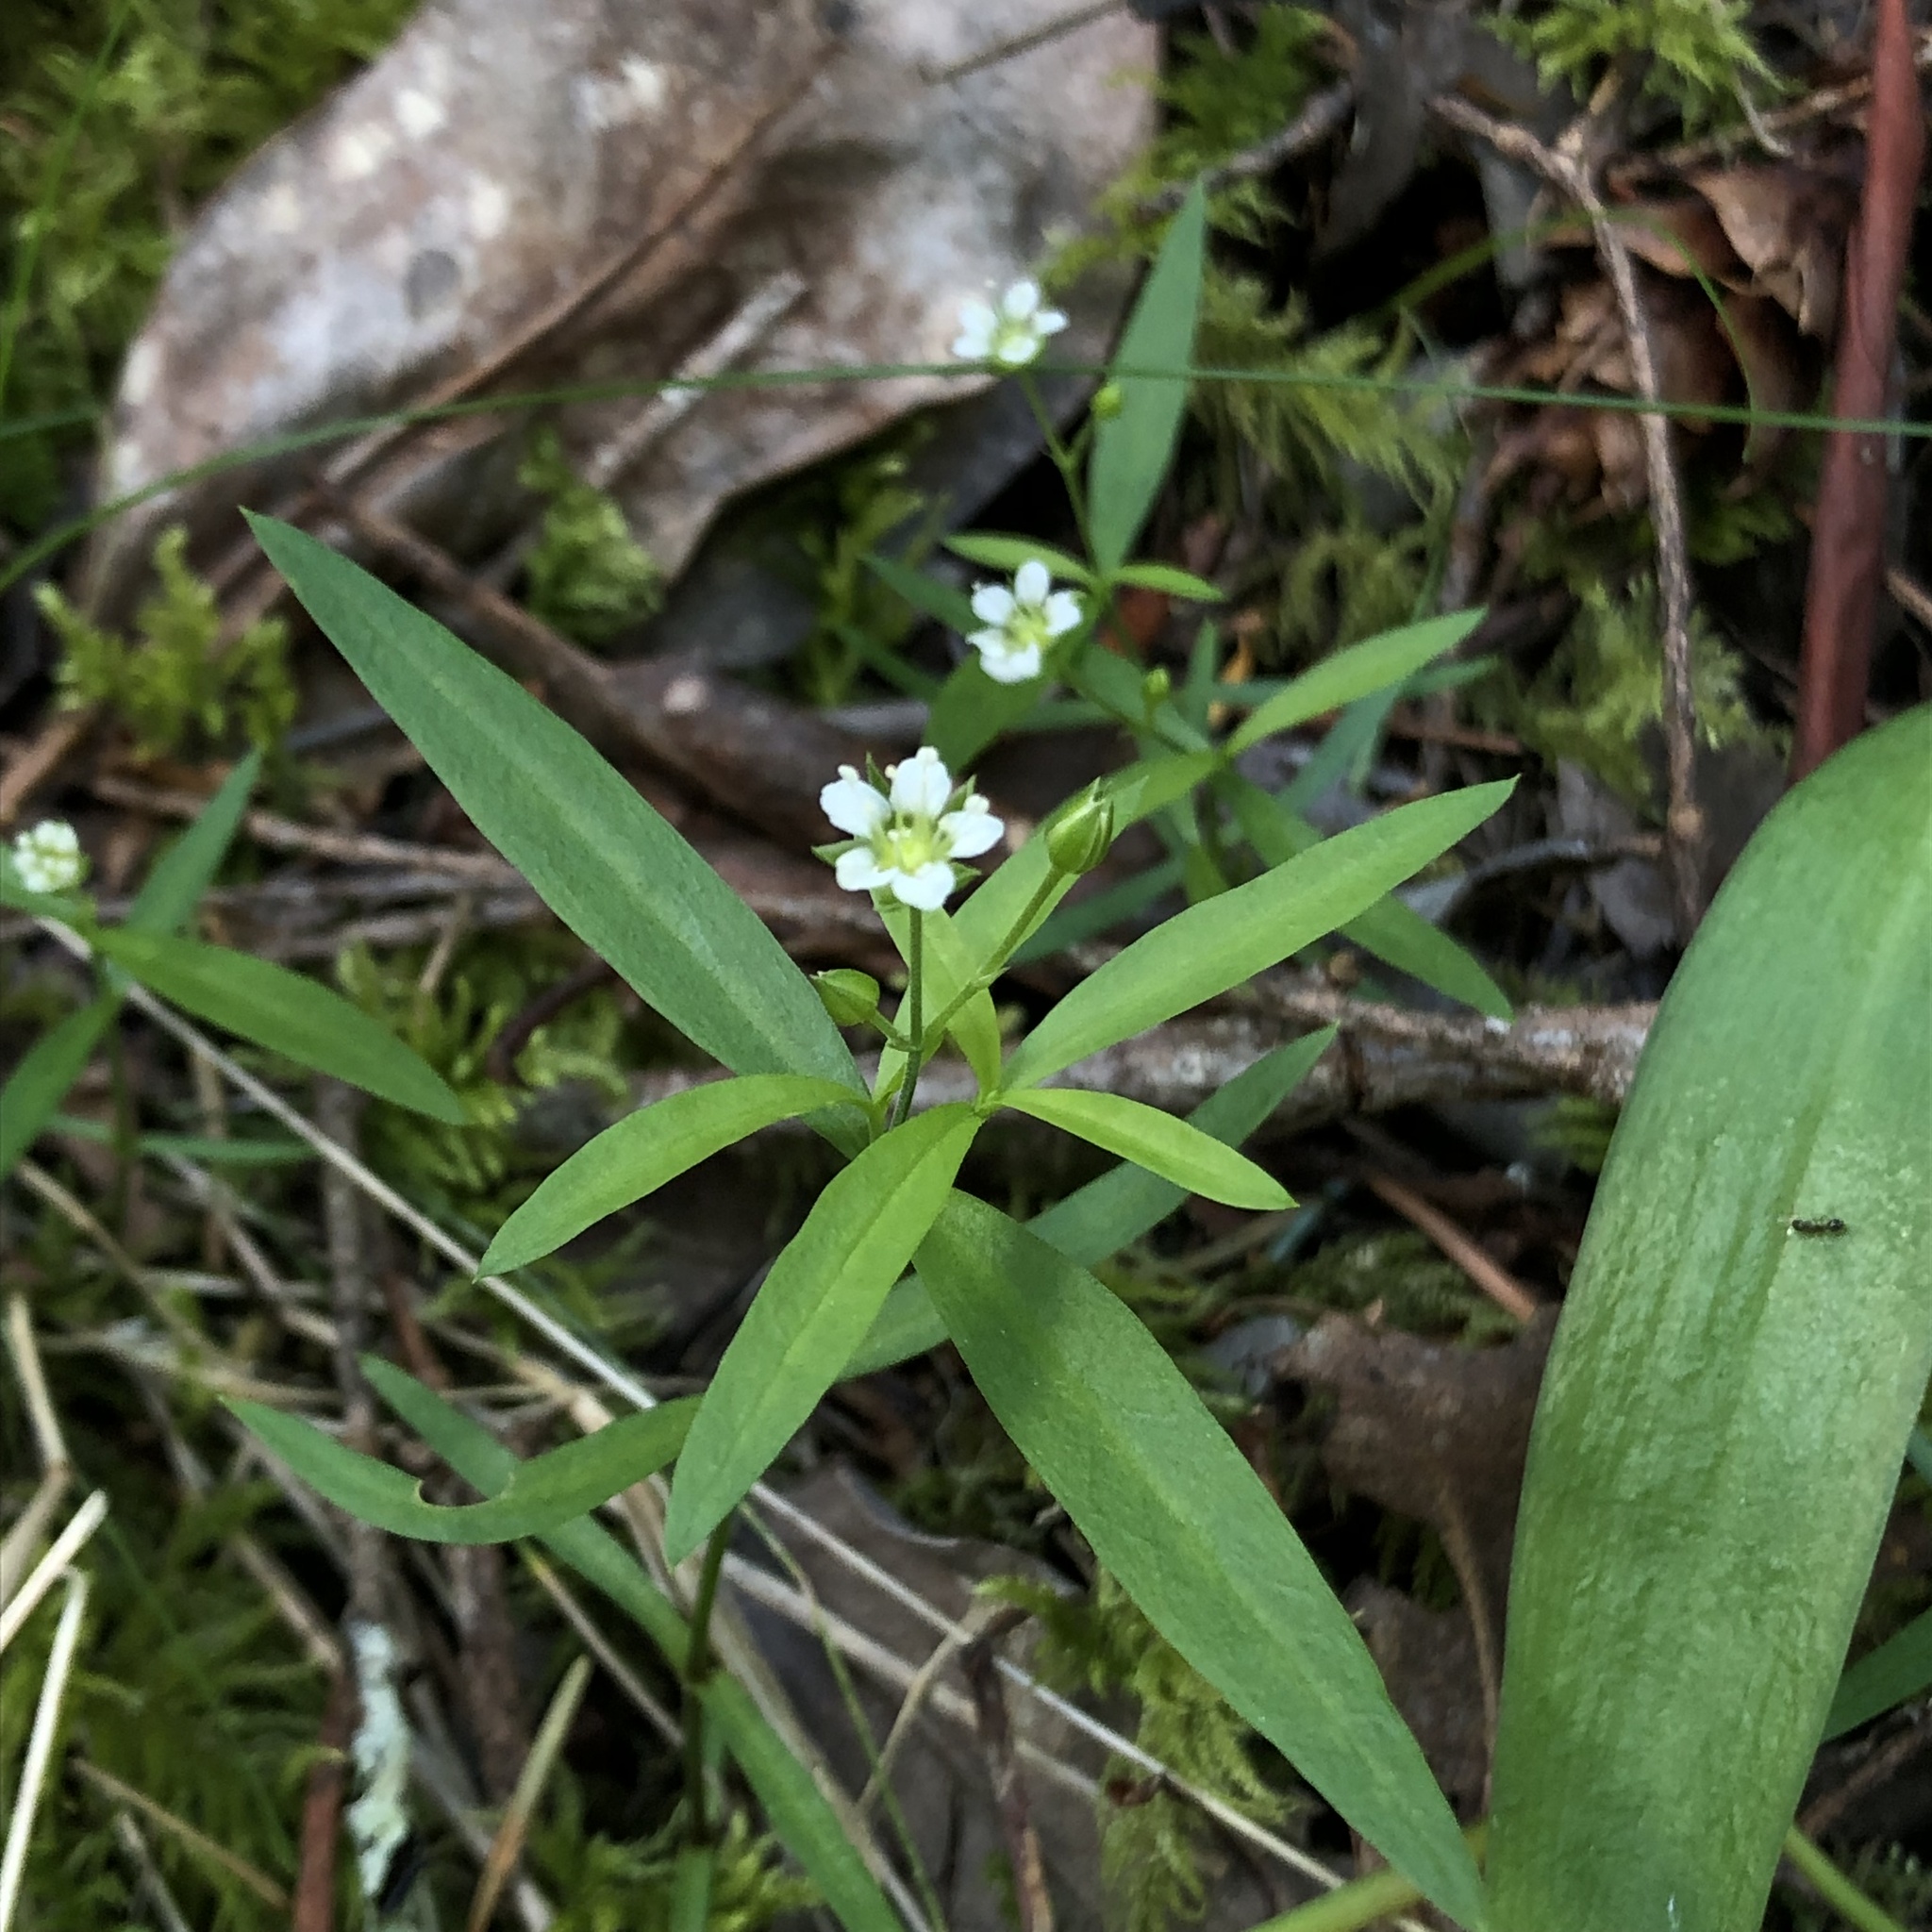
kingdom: Plantae
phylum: Tracheophyta
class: Magnoliopsida
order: Caryophyllales
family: Caryophyllaceae
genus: Moehringia
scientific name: Moehringia macrophylla
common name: Big-leaf sandwort
